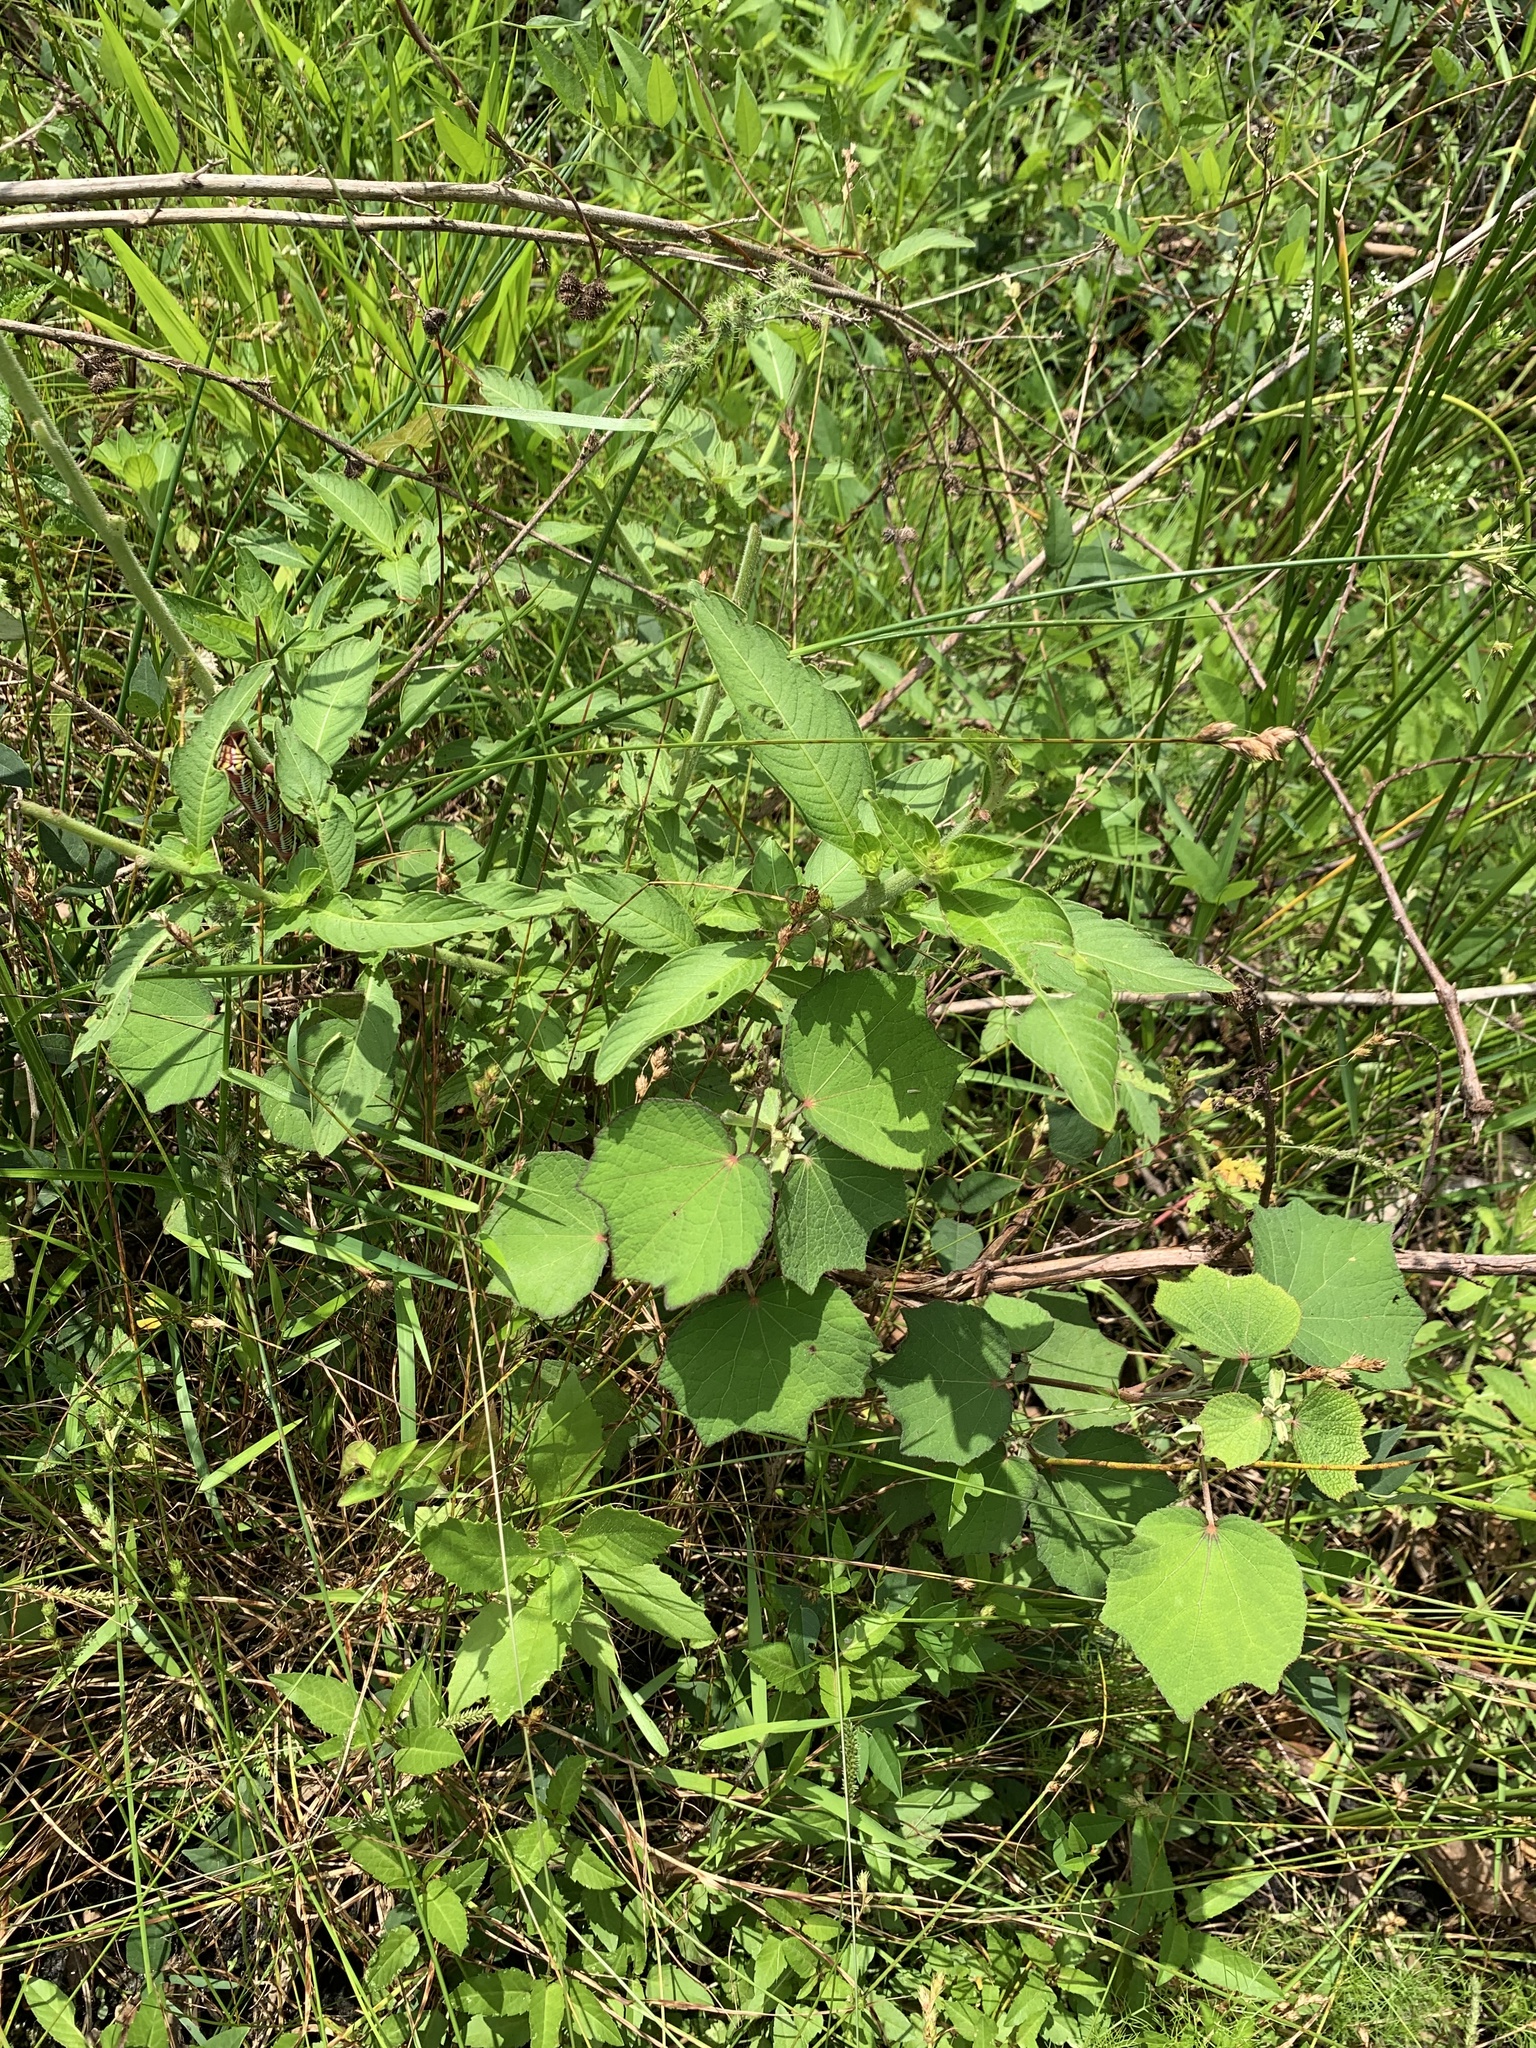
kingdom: Plantae
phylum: Tracheophyta
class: Magnoliopsida
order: Malvales
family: Malvaceae
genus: Urena
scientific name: Urena lobata
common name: Caesarweed
